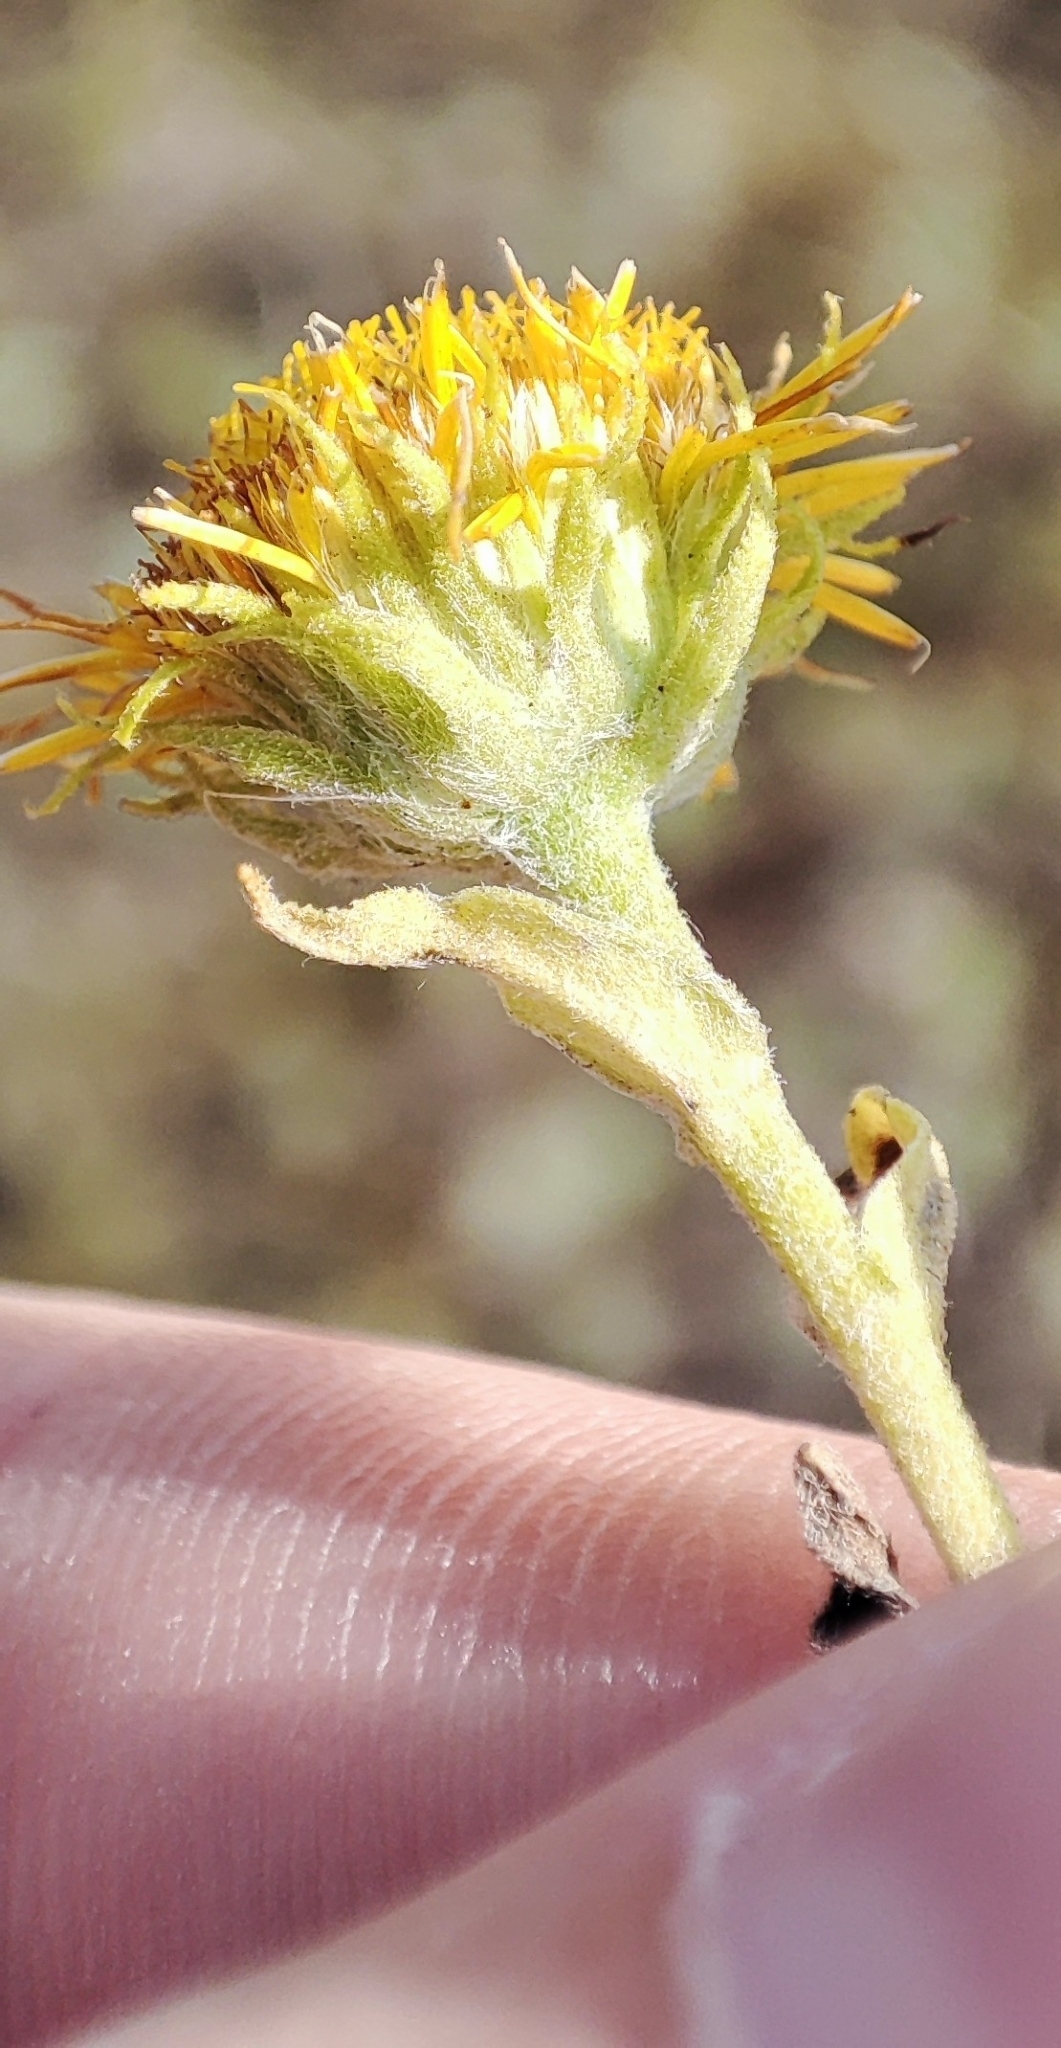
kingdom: Plantae
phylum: Tracheophyta
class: Magnoliopsida
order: Asterales
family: Asteraceae
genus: Pentanema
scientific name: Pentanema britannicum
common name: British elecampane
